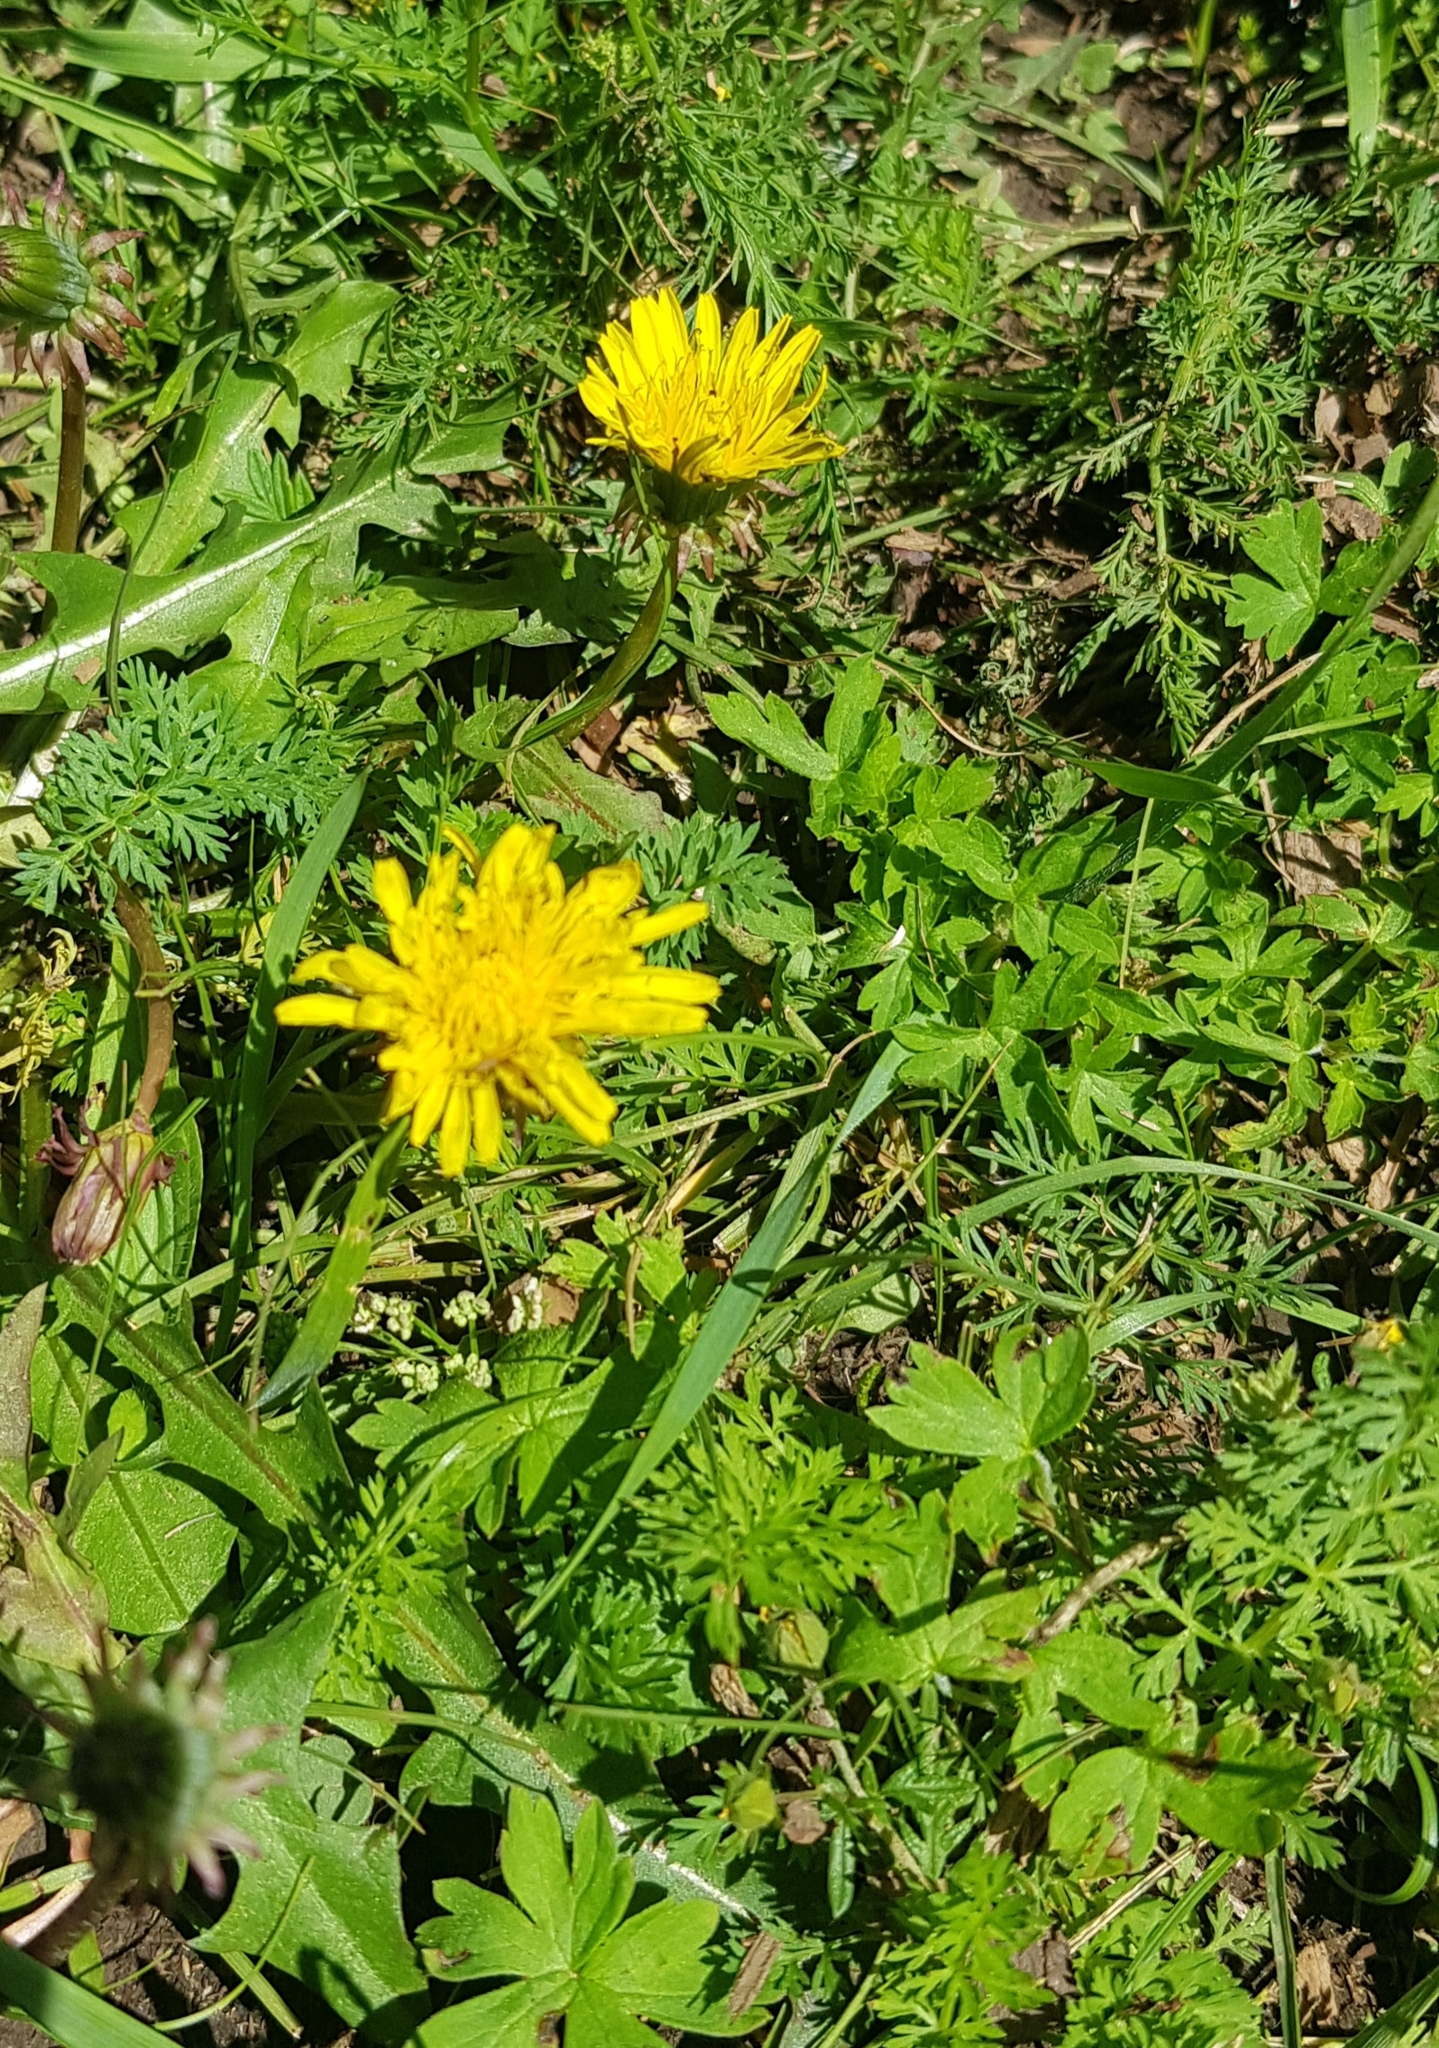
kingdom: Plantae
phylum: Tracheophyta
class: Magnoliopsida
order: Asterales
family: Asteraceae
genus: Taraxacum
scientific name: Taraxacum officinale
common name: Common dandelion
